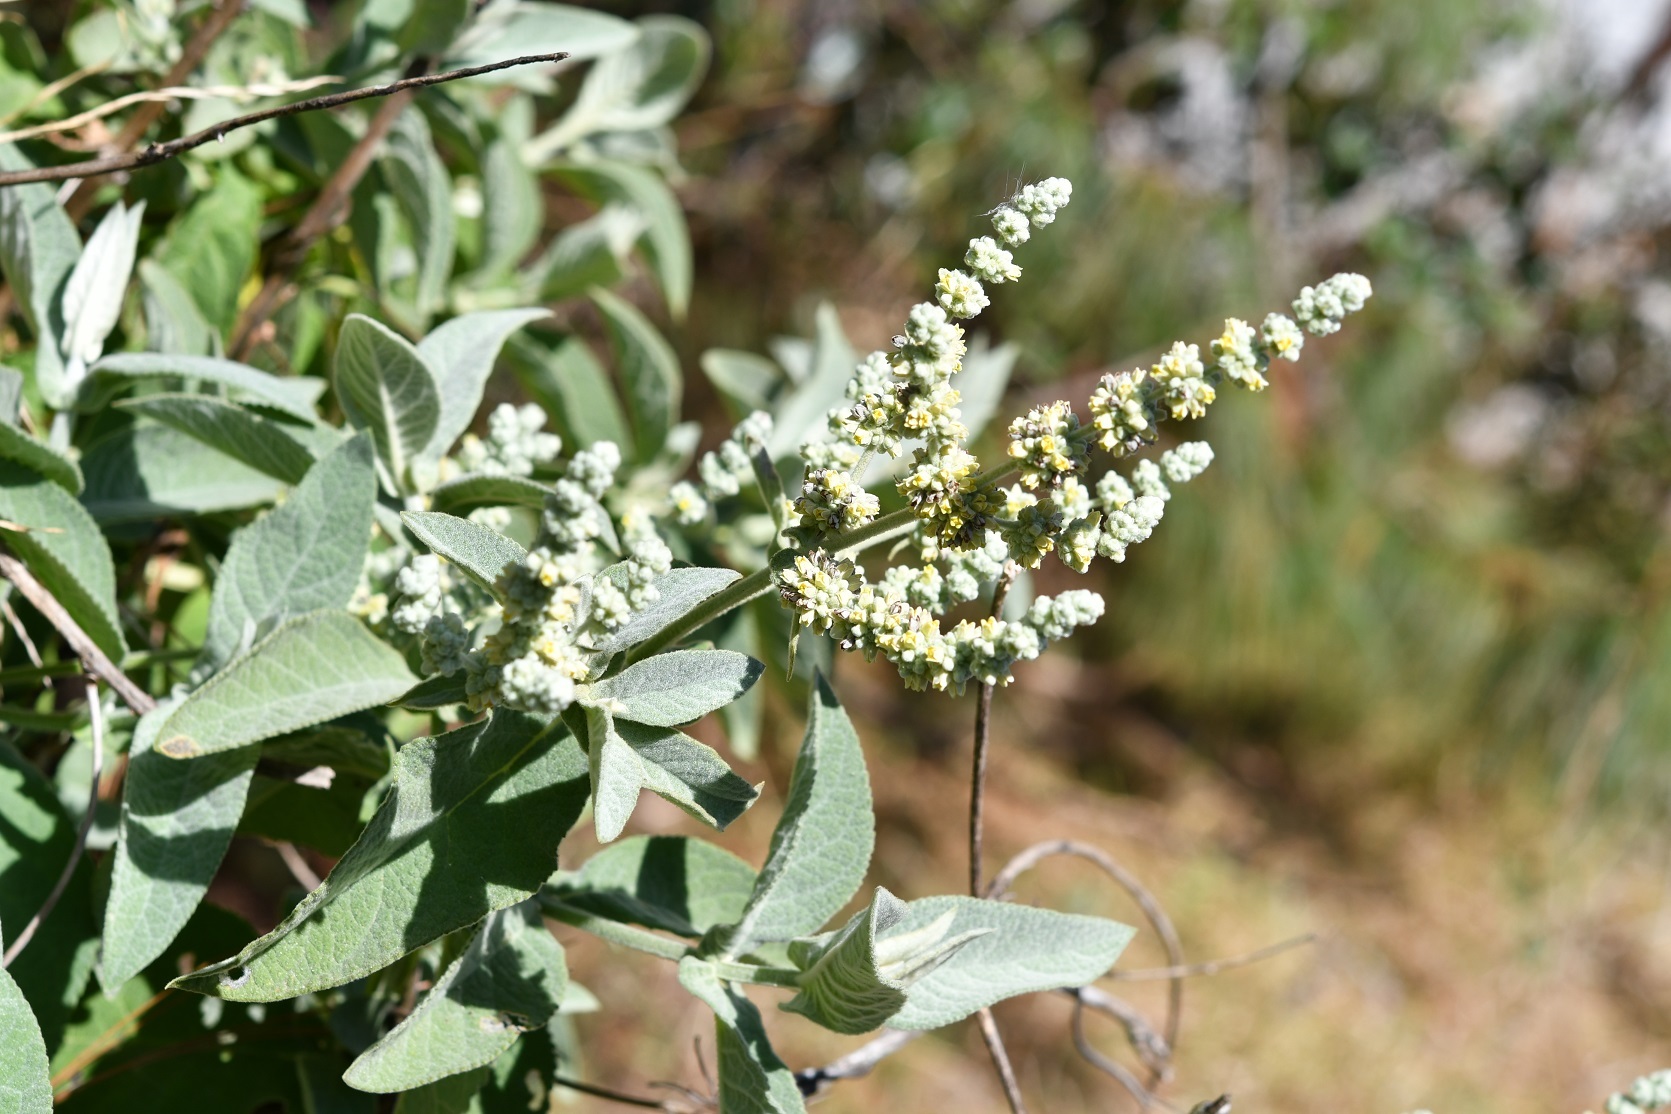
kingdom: Plantae
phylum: Tracheophyta
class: Magnoliopsida
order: Lamiales
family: Scrophulariaceae
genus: Buddleja
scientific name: Buddleja crotonoides
